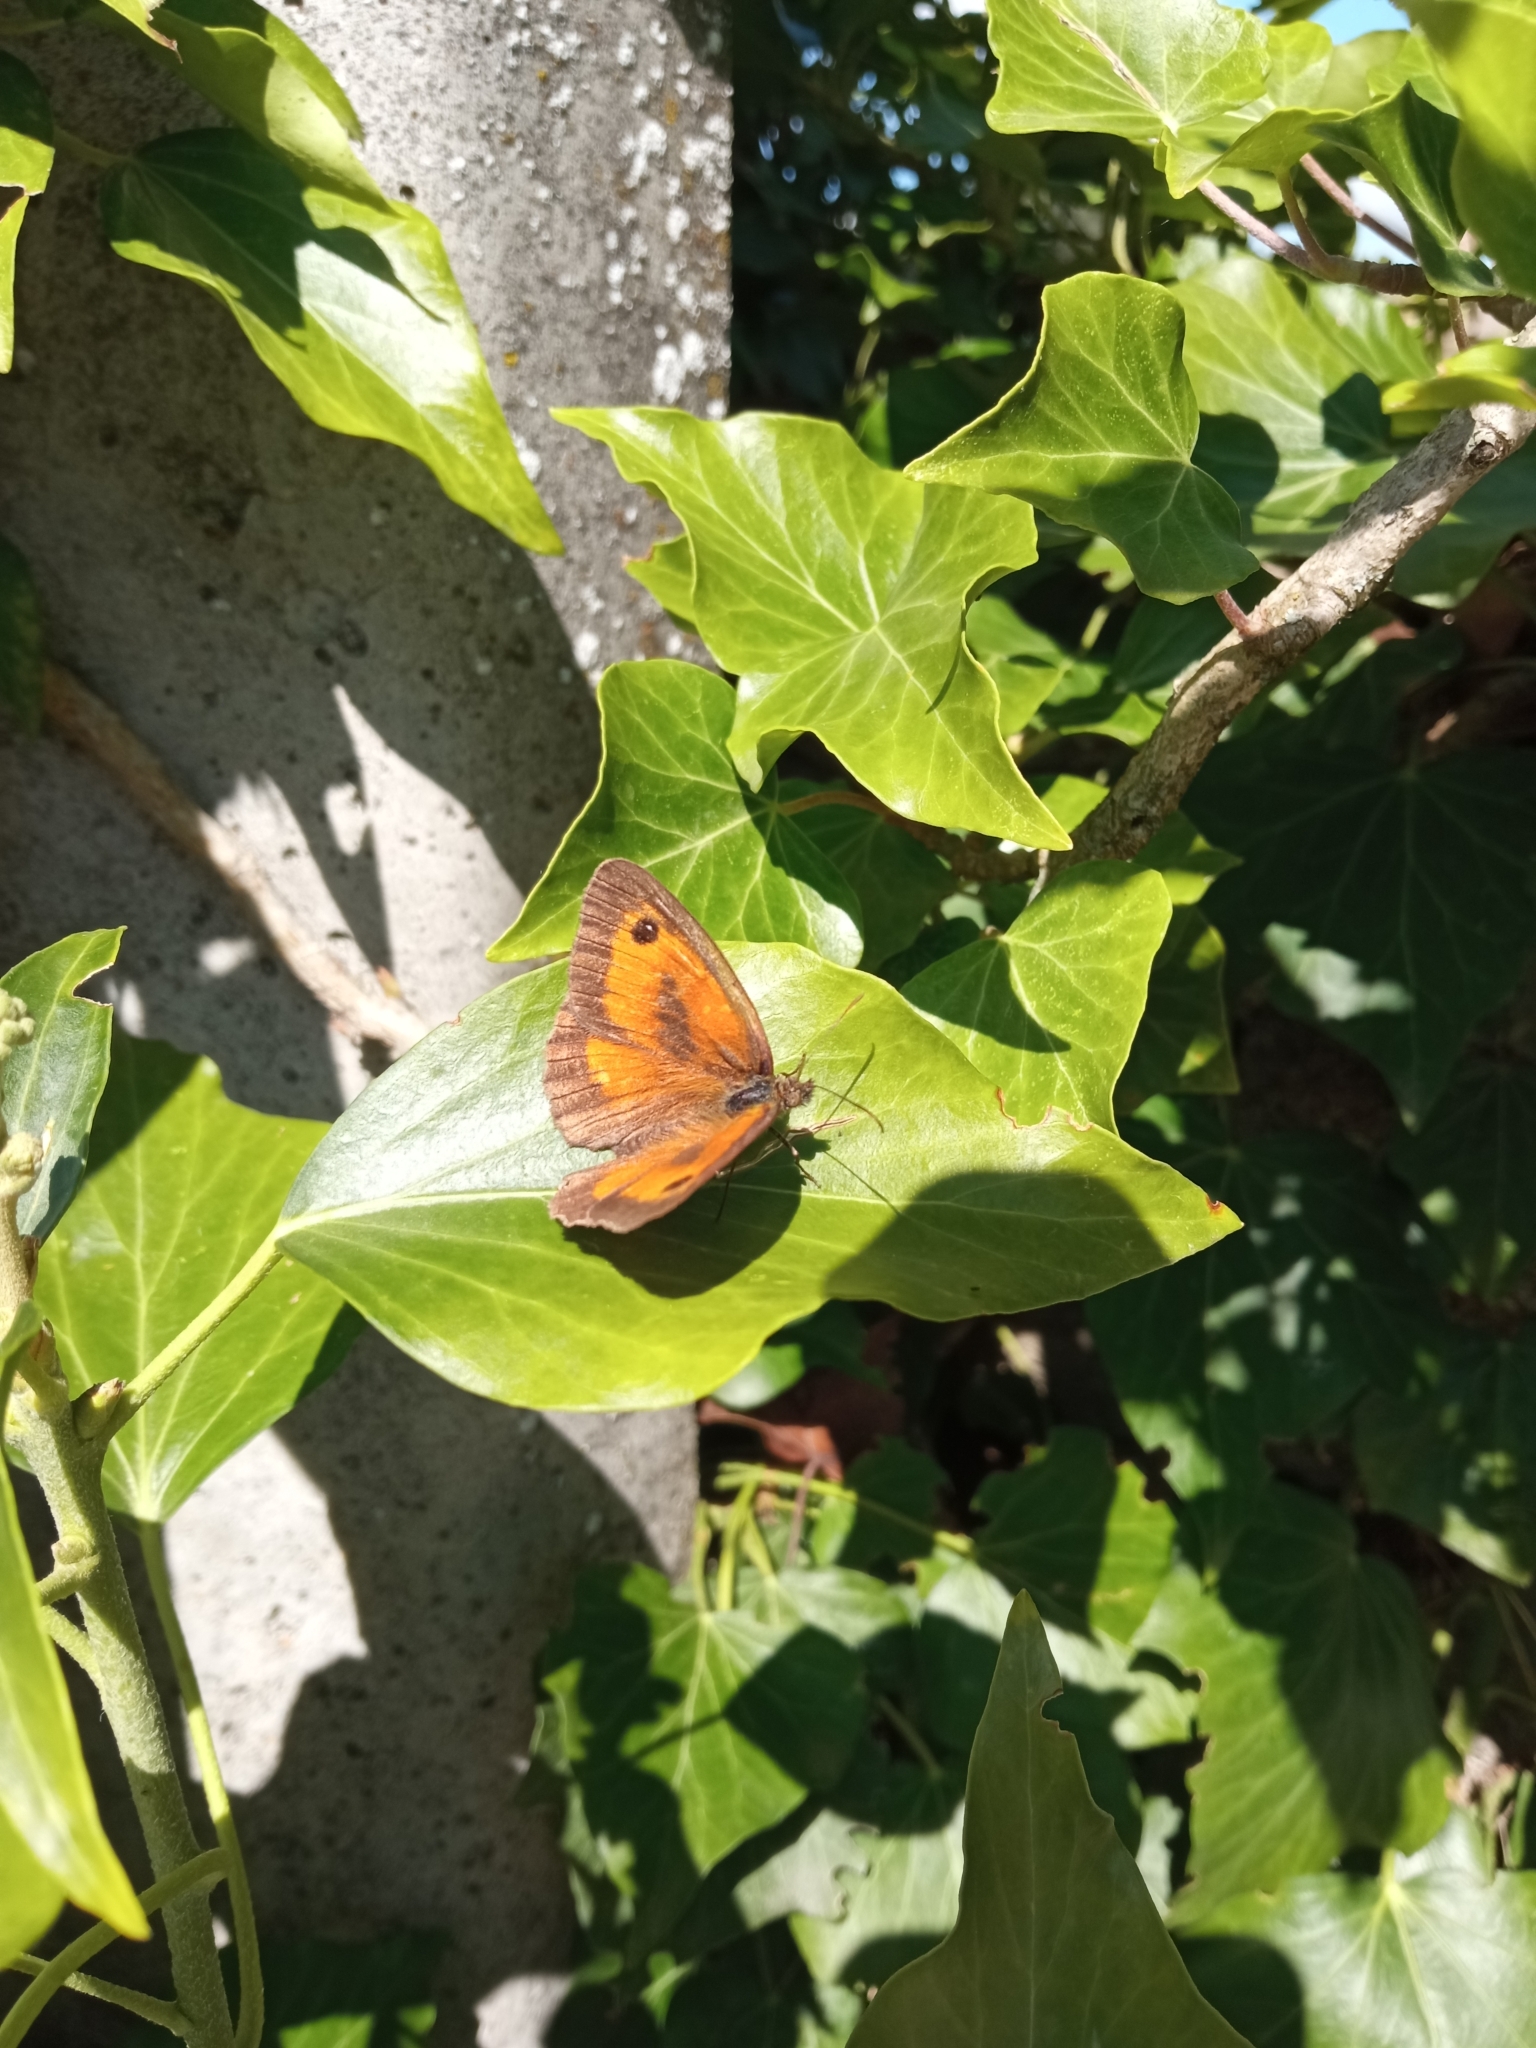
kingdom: Animalia
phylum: Arthropoda
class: Insecta
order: Lepidoptera
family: Nymphalidae
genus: Pyronia
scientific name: Pyronia tithonus
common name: Gatekeeper
